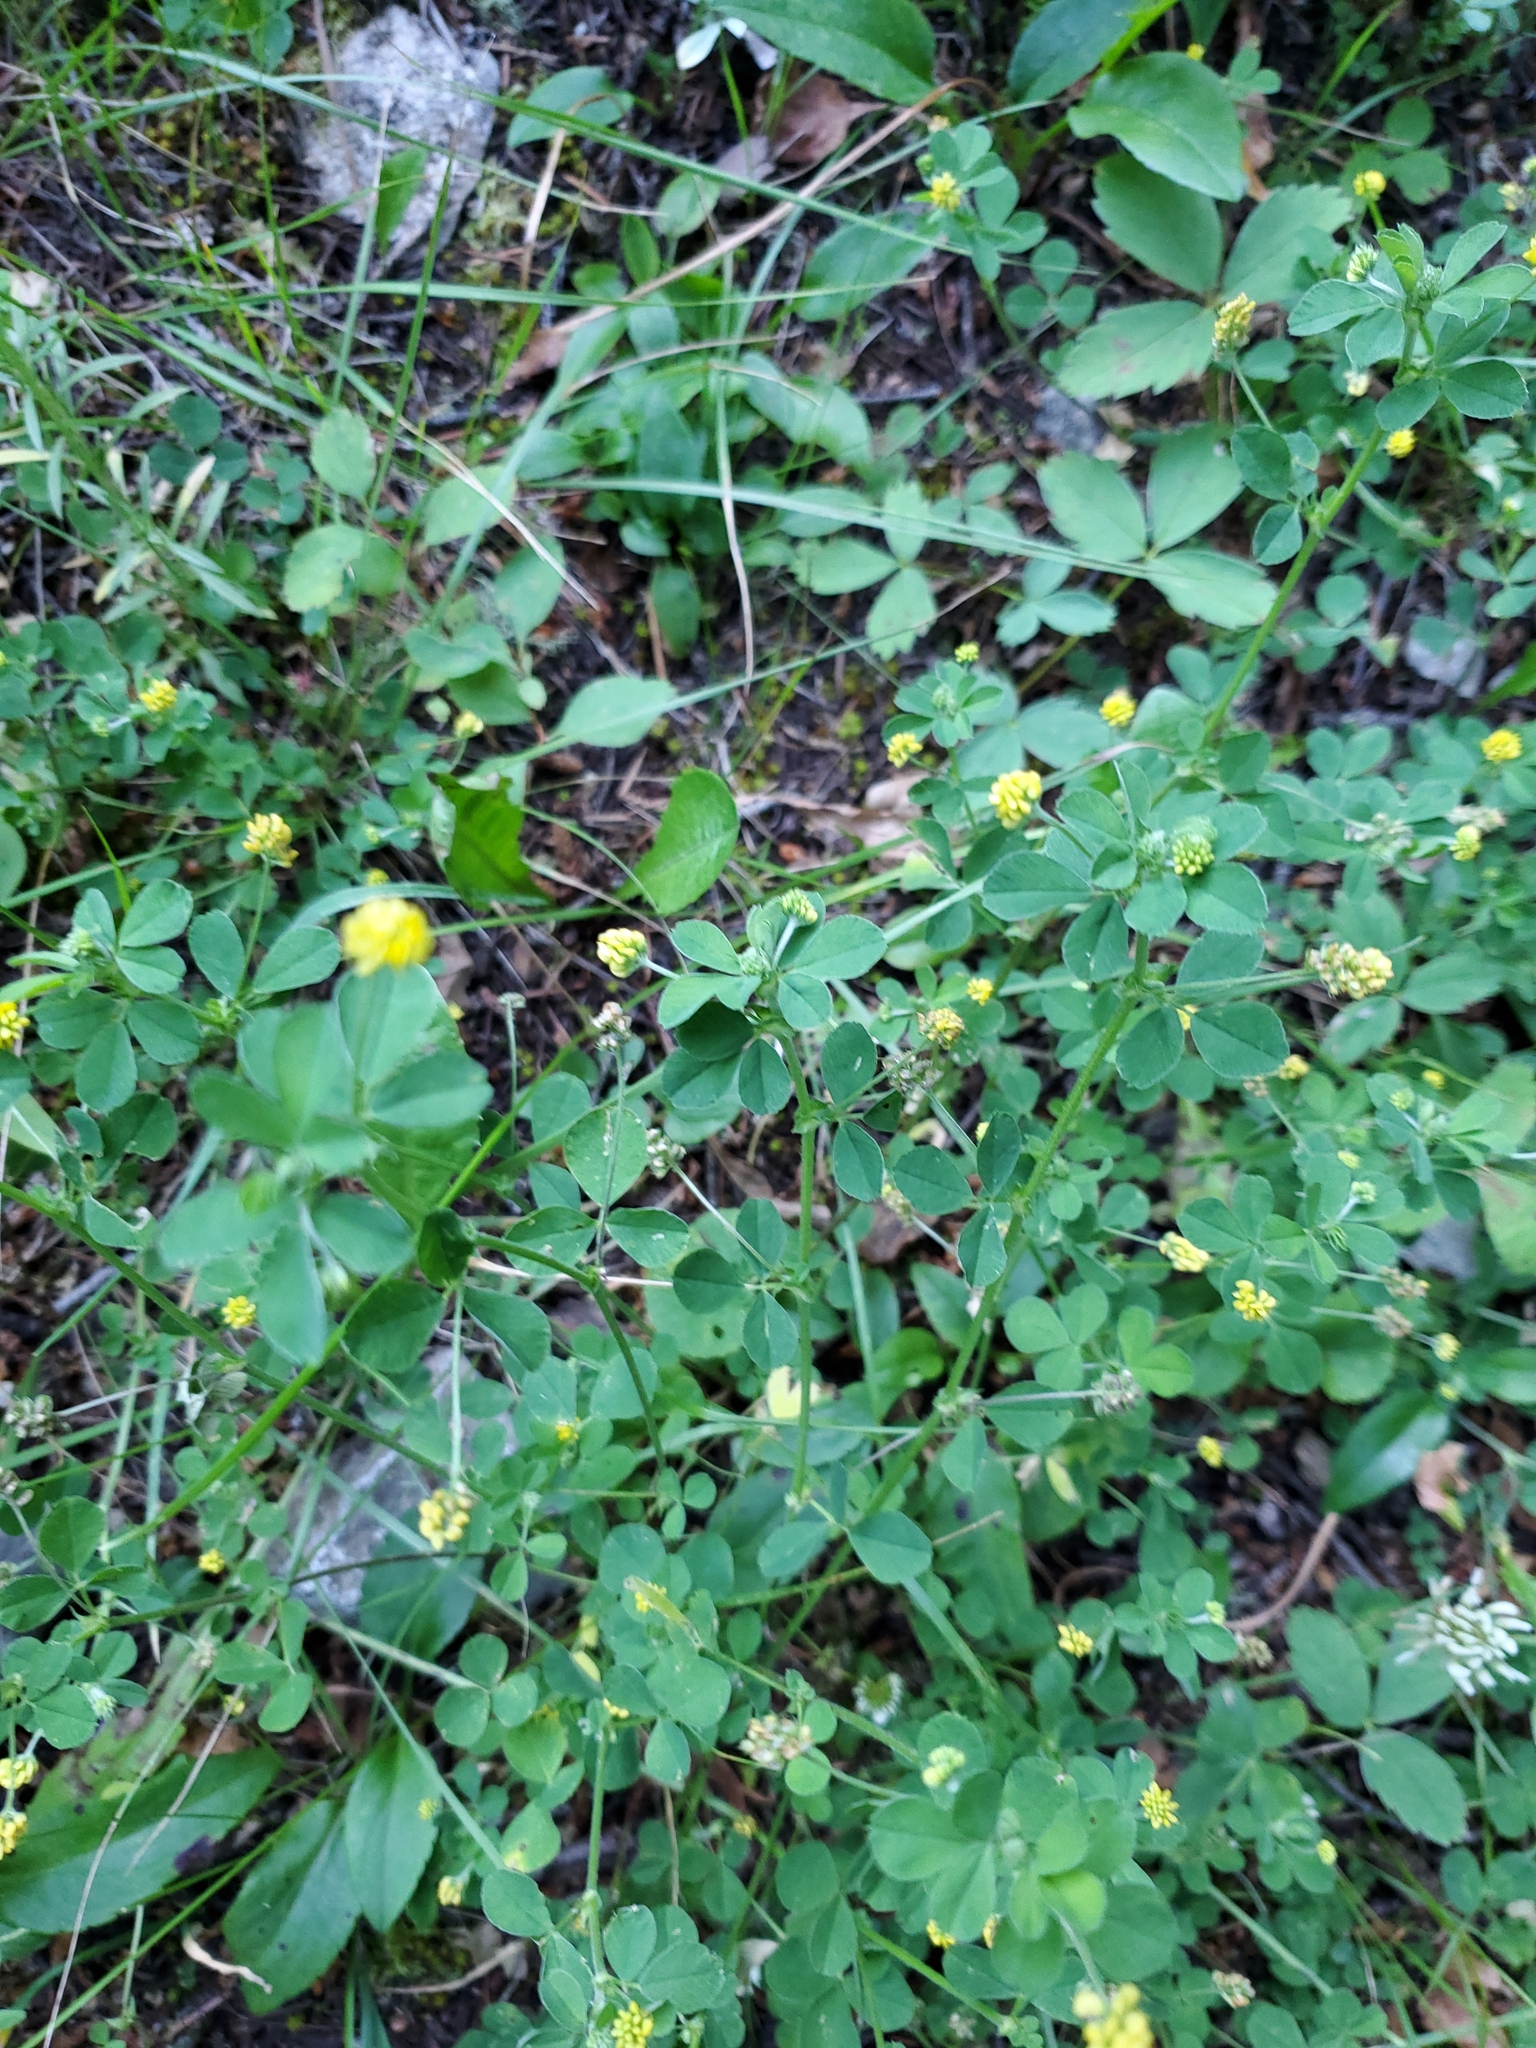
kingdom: Plantae
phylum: Tracheophyta
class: Magnoliopsida
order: Fabales
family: Fabaceae
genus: Medicago
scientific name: Medicago lupulina
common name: Black medick
